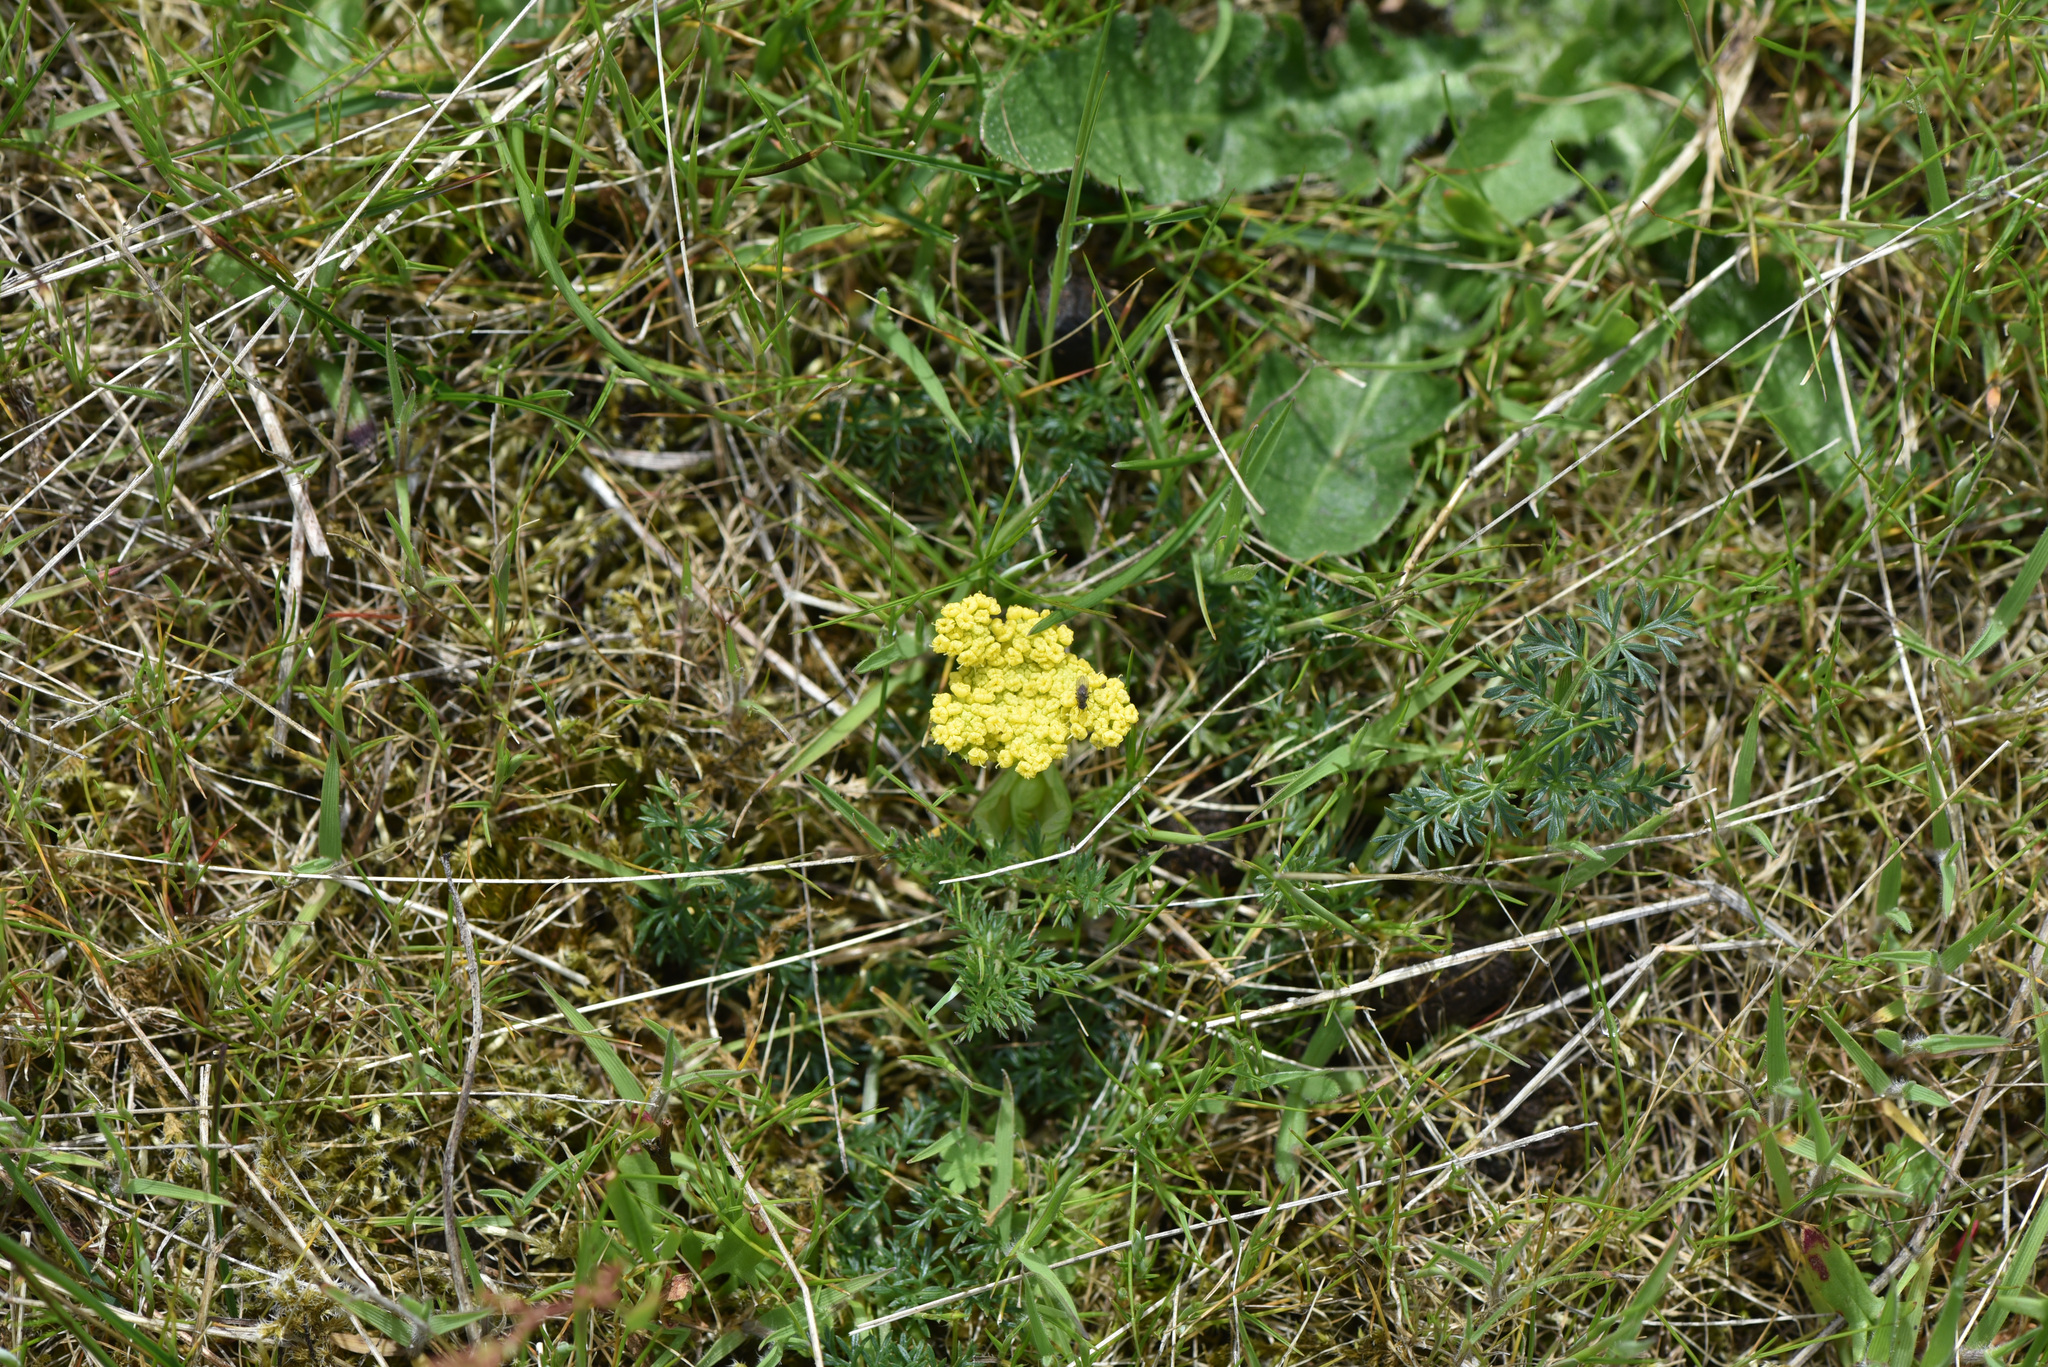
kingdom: Plantae
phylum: Tracheophyta
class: Magnoliopsida
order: Apiales
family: Apiaceae
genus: Lomatium
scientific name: Lomatium utriculatum
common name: Fine-leaf desert-parsley
